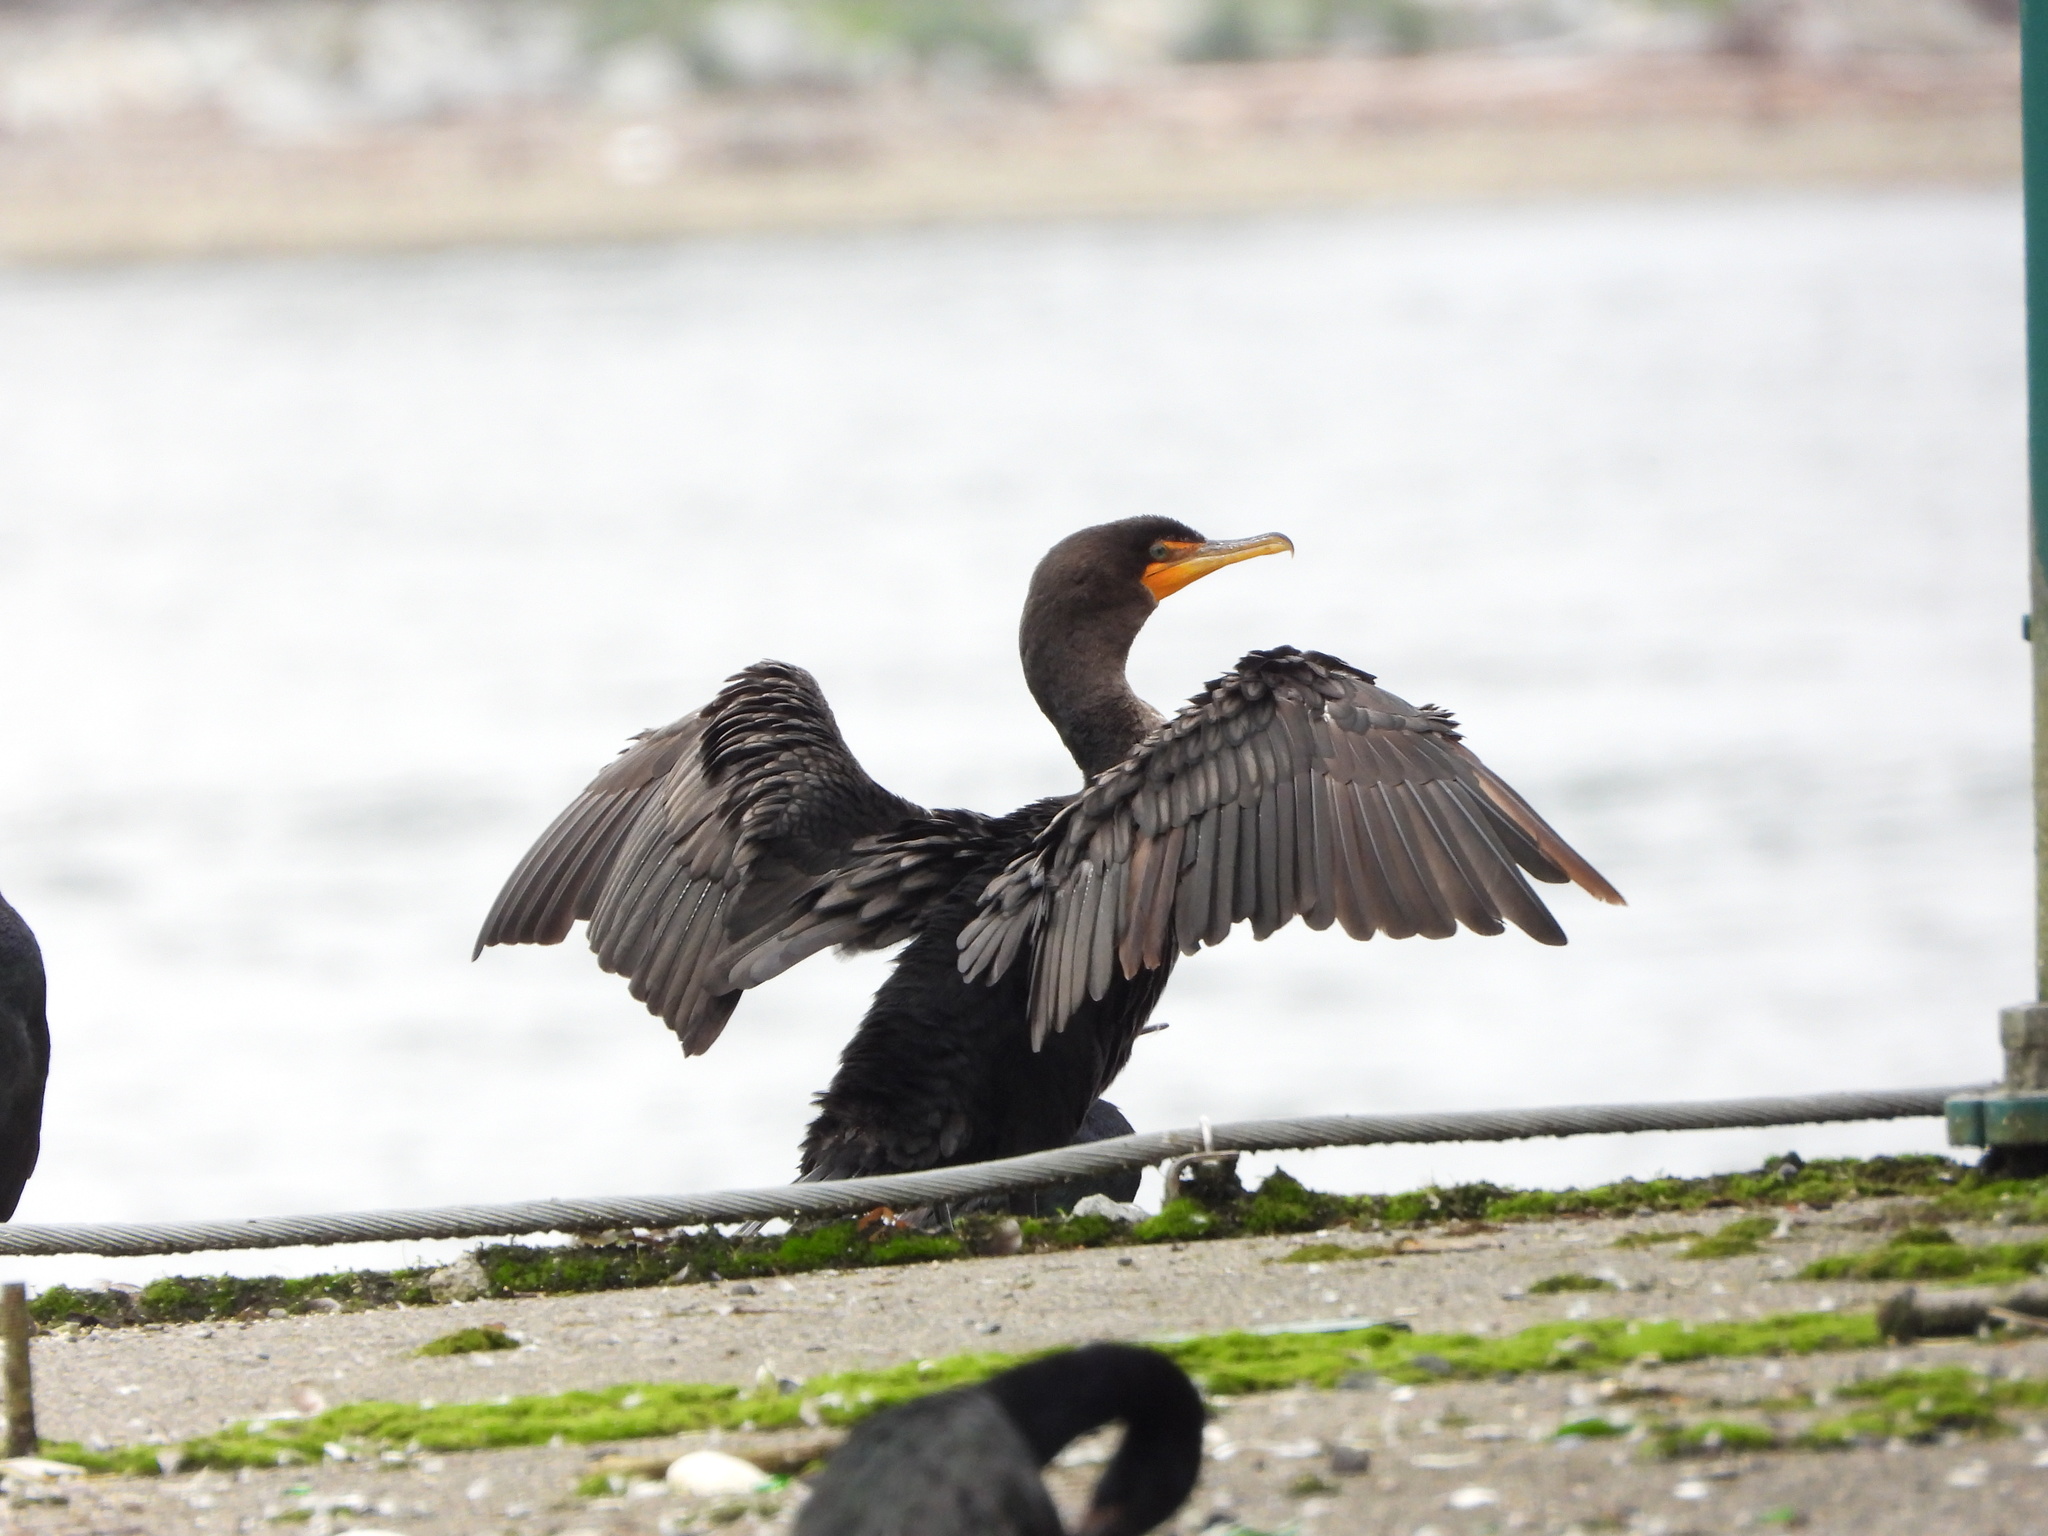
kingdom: Animalia
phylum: Chordata
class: Aves
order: Suliformes
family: Phalacrocoracidae
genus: Phalacrocorax
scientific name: Phalacrocorax auritus
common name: Double-crested cormorant
